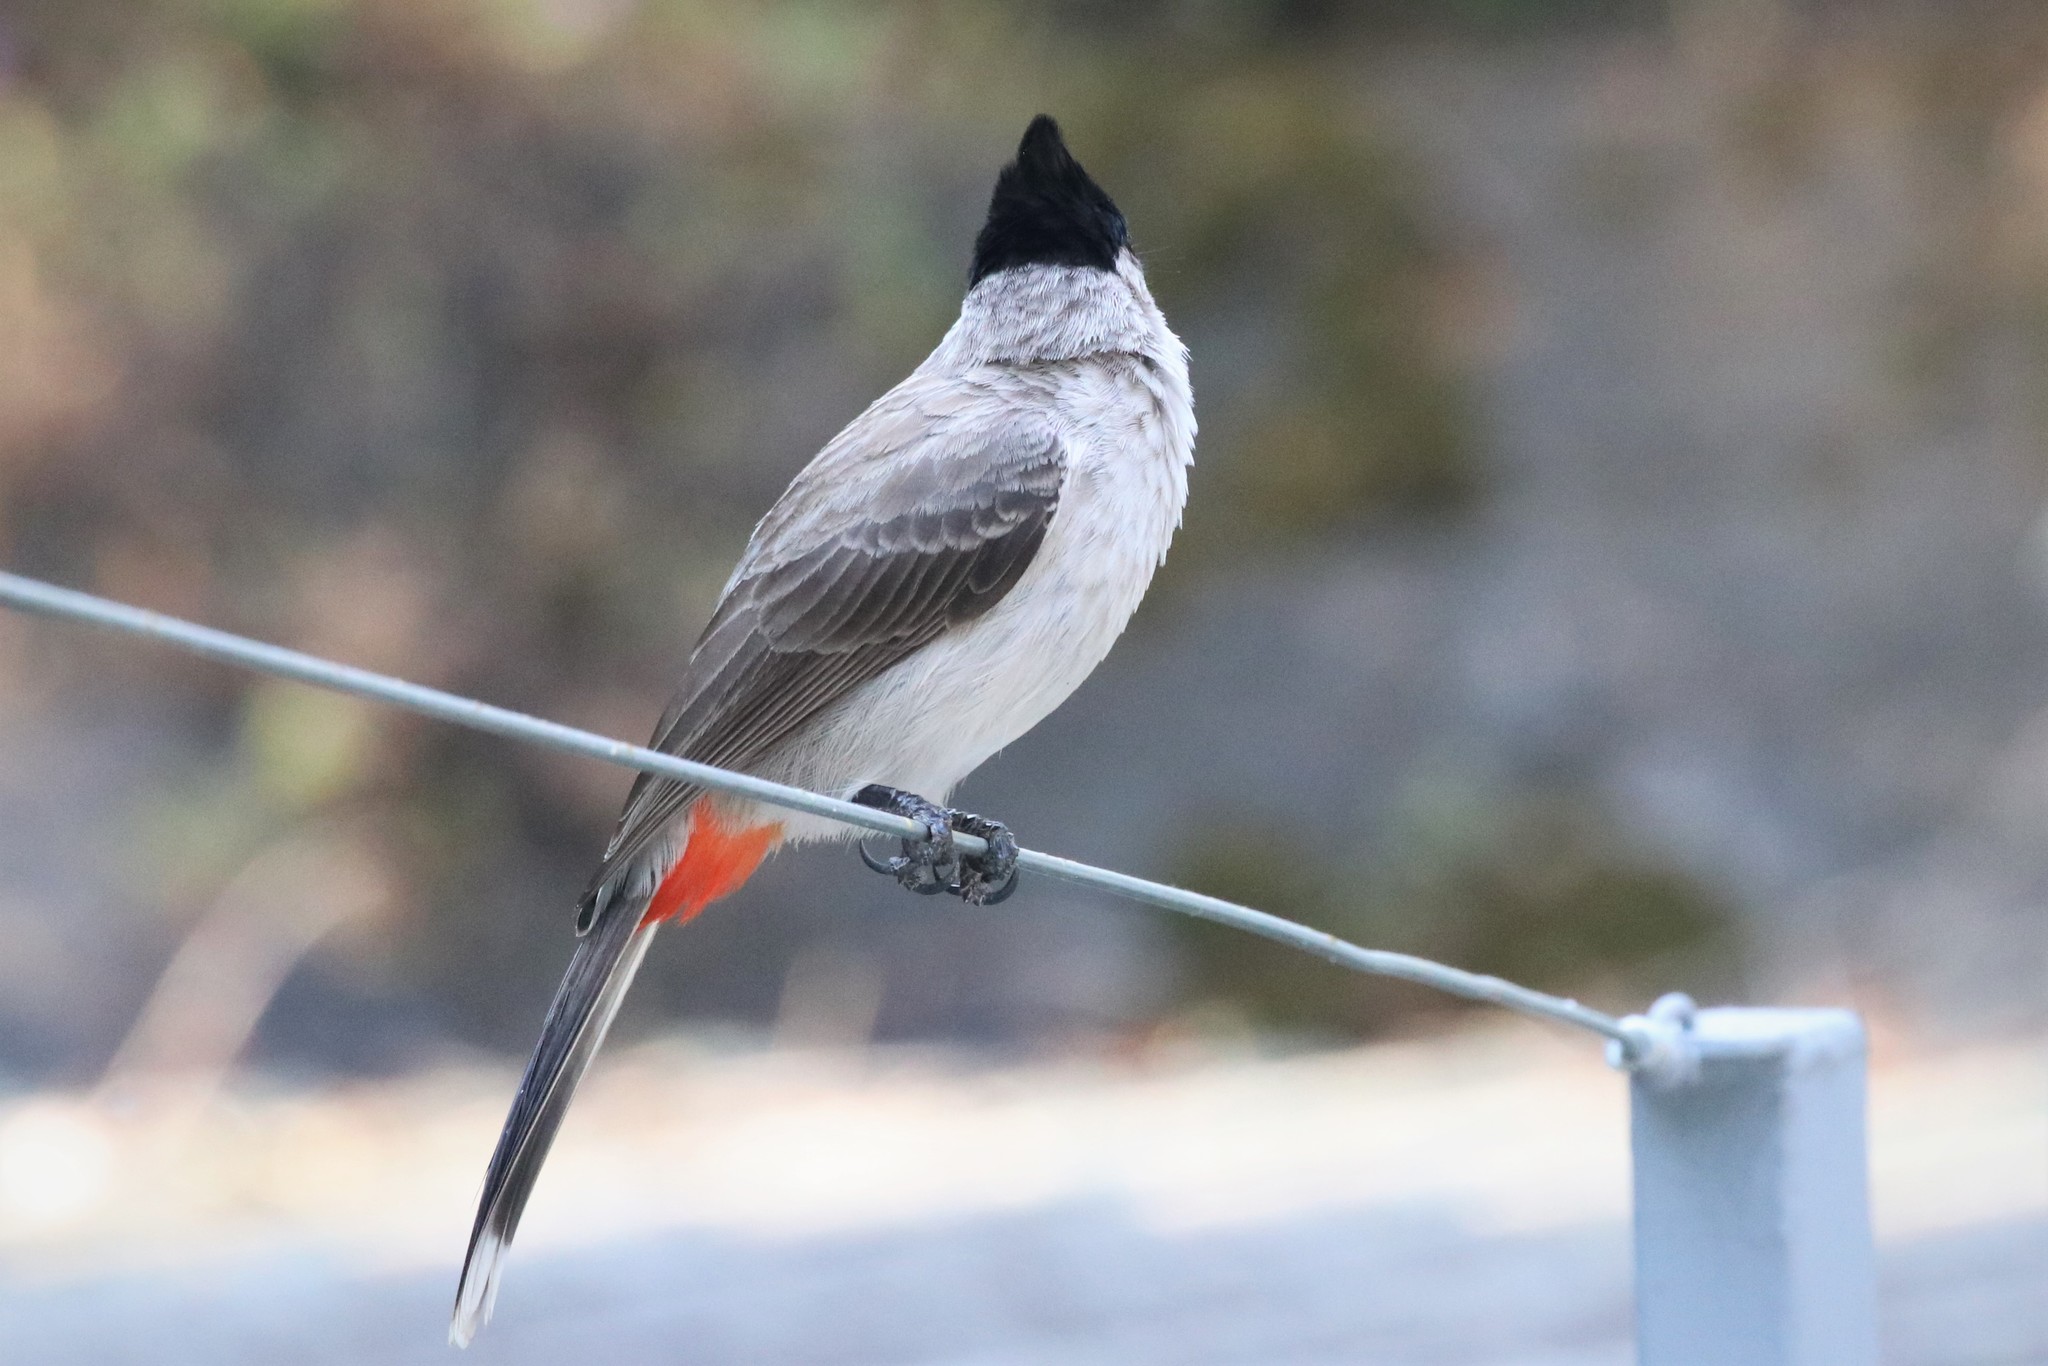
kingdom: Animalia
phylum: Chordata
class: Aves
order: Passeriformes
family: Pycnonotidae
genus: Pycnonotus
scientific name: Pycnonotus aurigaster
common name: Sooty-headed bulbul
